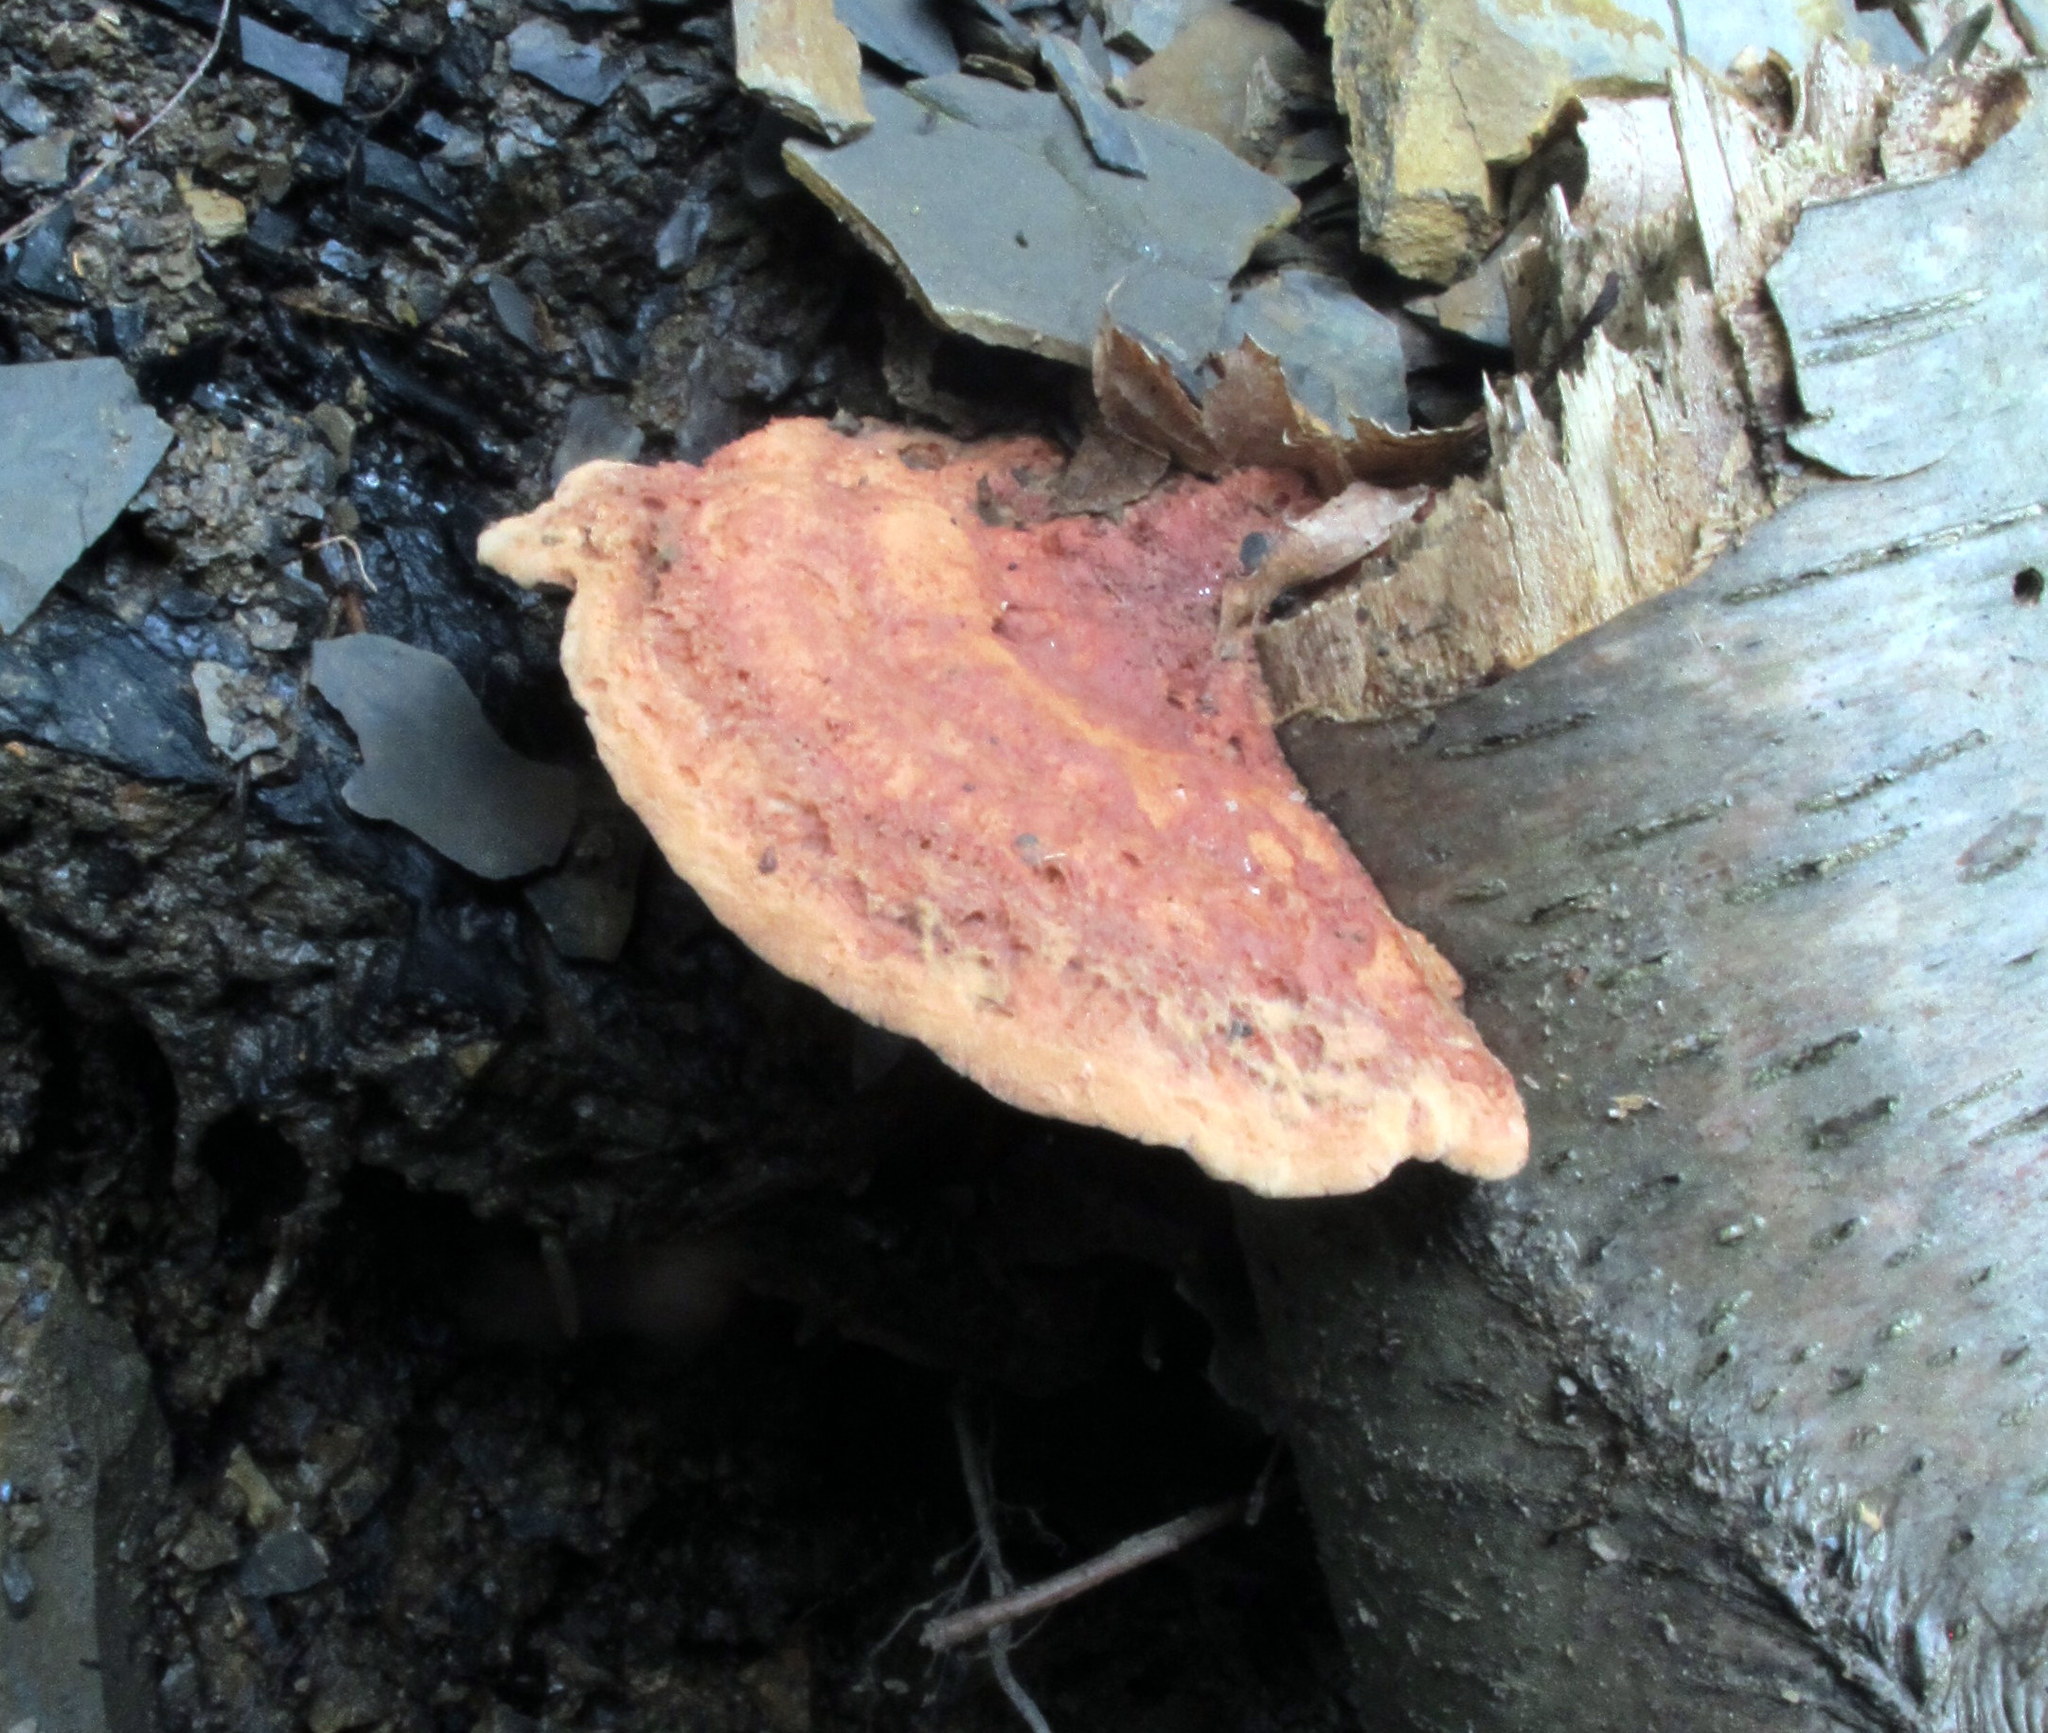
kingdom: Fungi
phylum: Basidiomycota
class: Agaricomycetes
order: Polyporales
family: Phanerochaetaceae
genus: Hapalopilus
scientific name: Hapalopilus rutilans
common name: Tender nesting polypore
